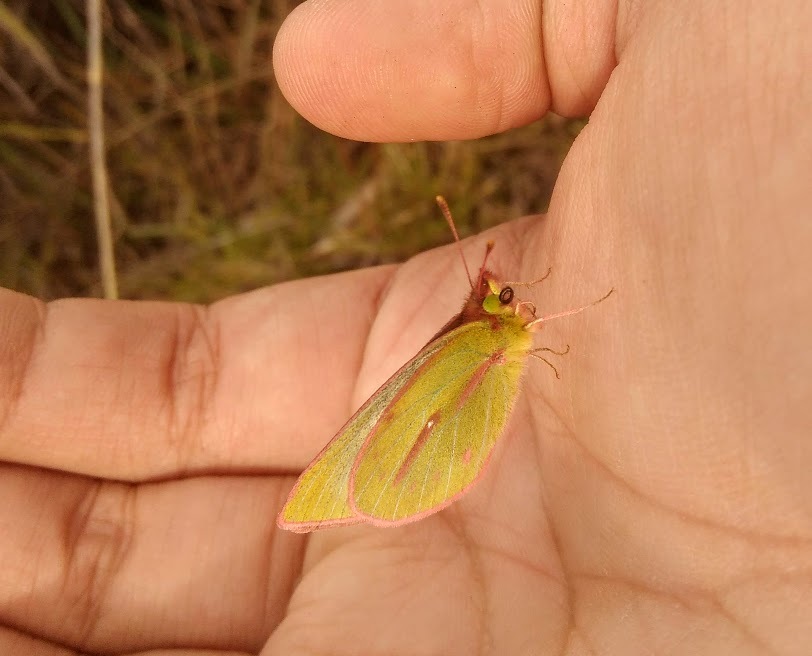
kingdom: Animalia
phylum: Arthropoda
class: Insecta
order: Lepidoptera
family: Pieridae
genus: Colias
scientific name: Colias dimera
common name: Dimera sulphur
